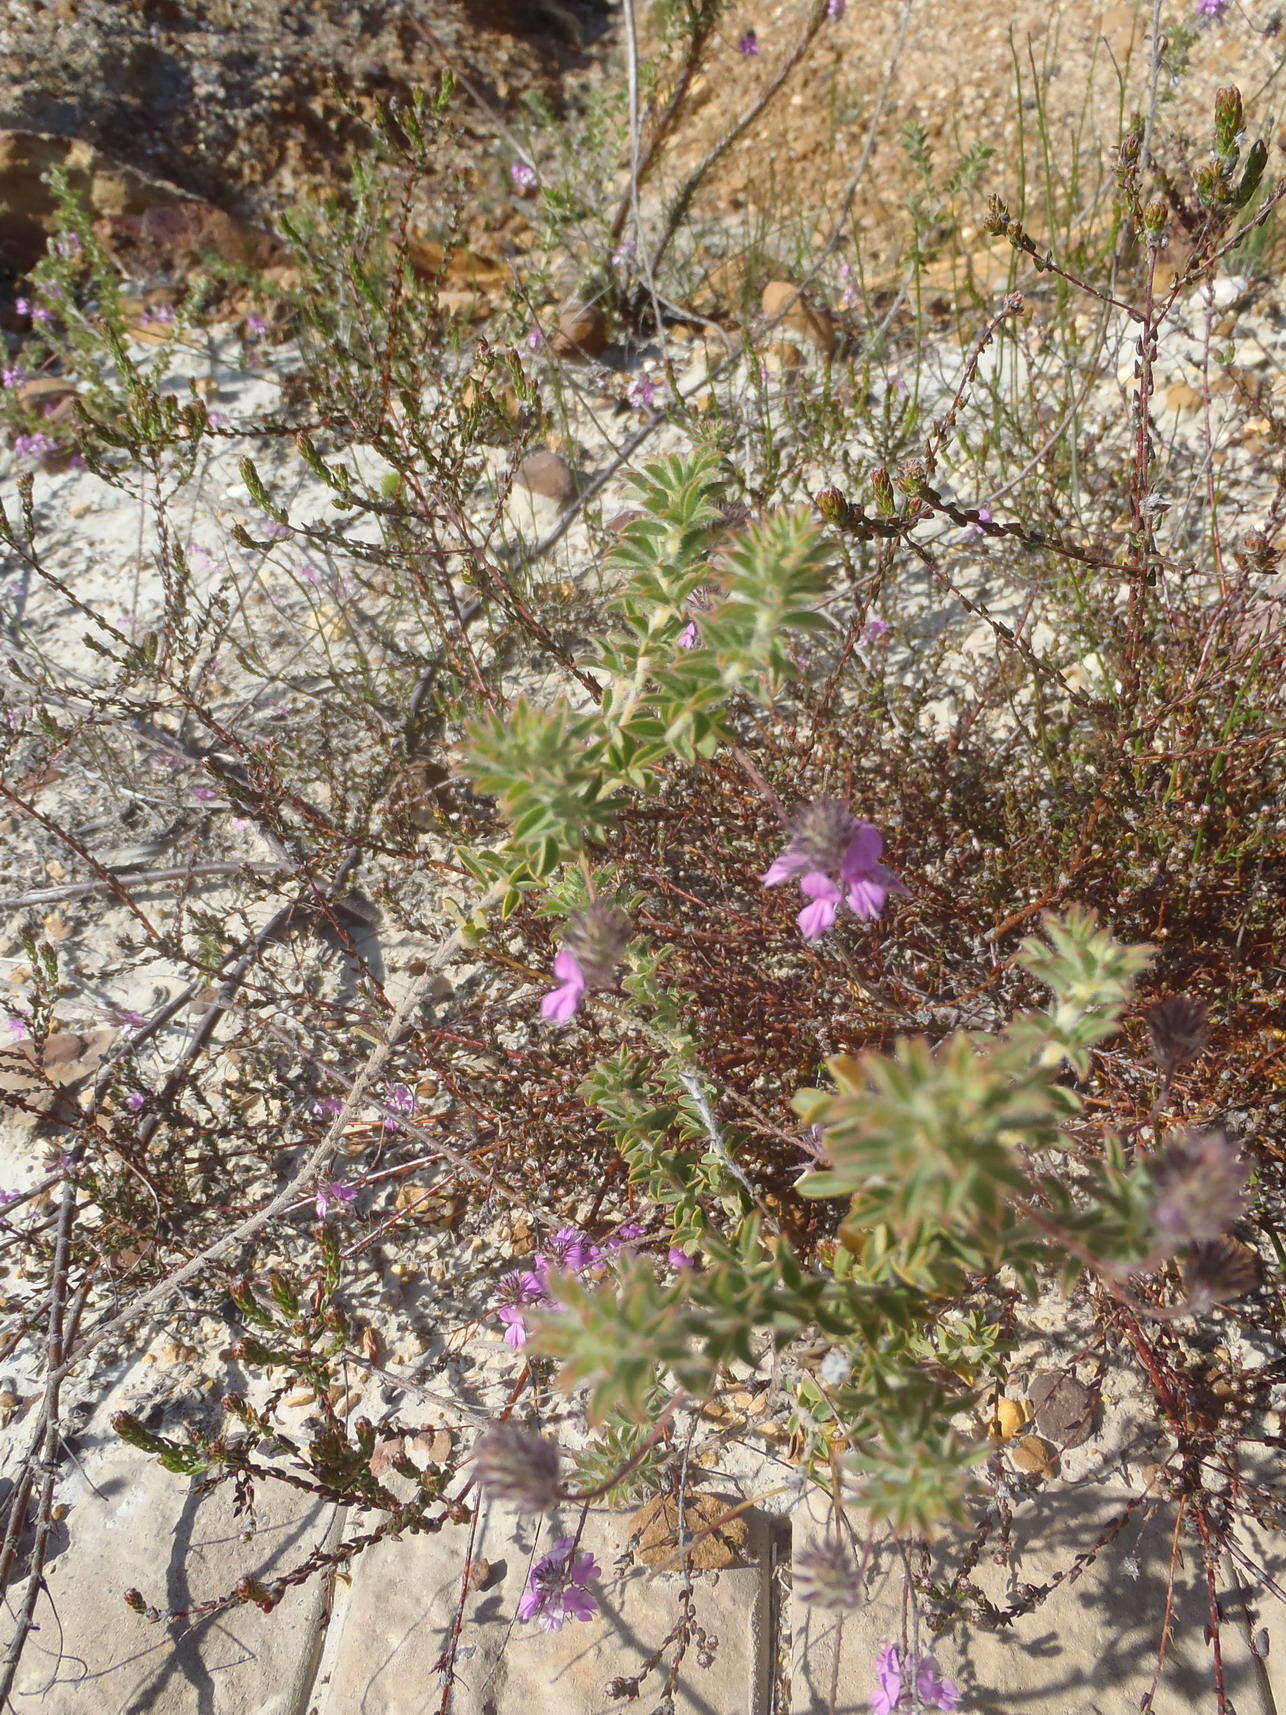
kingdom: Plantae
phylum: Tracheophyta
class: Magnoliopsida
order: Fabales
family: Fabaceae
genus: Indigofera
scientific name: Indigofera alopecuroides
